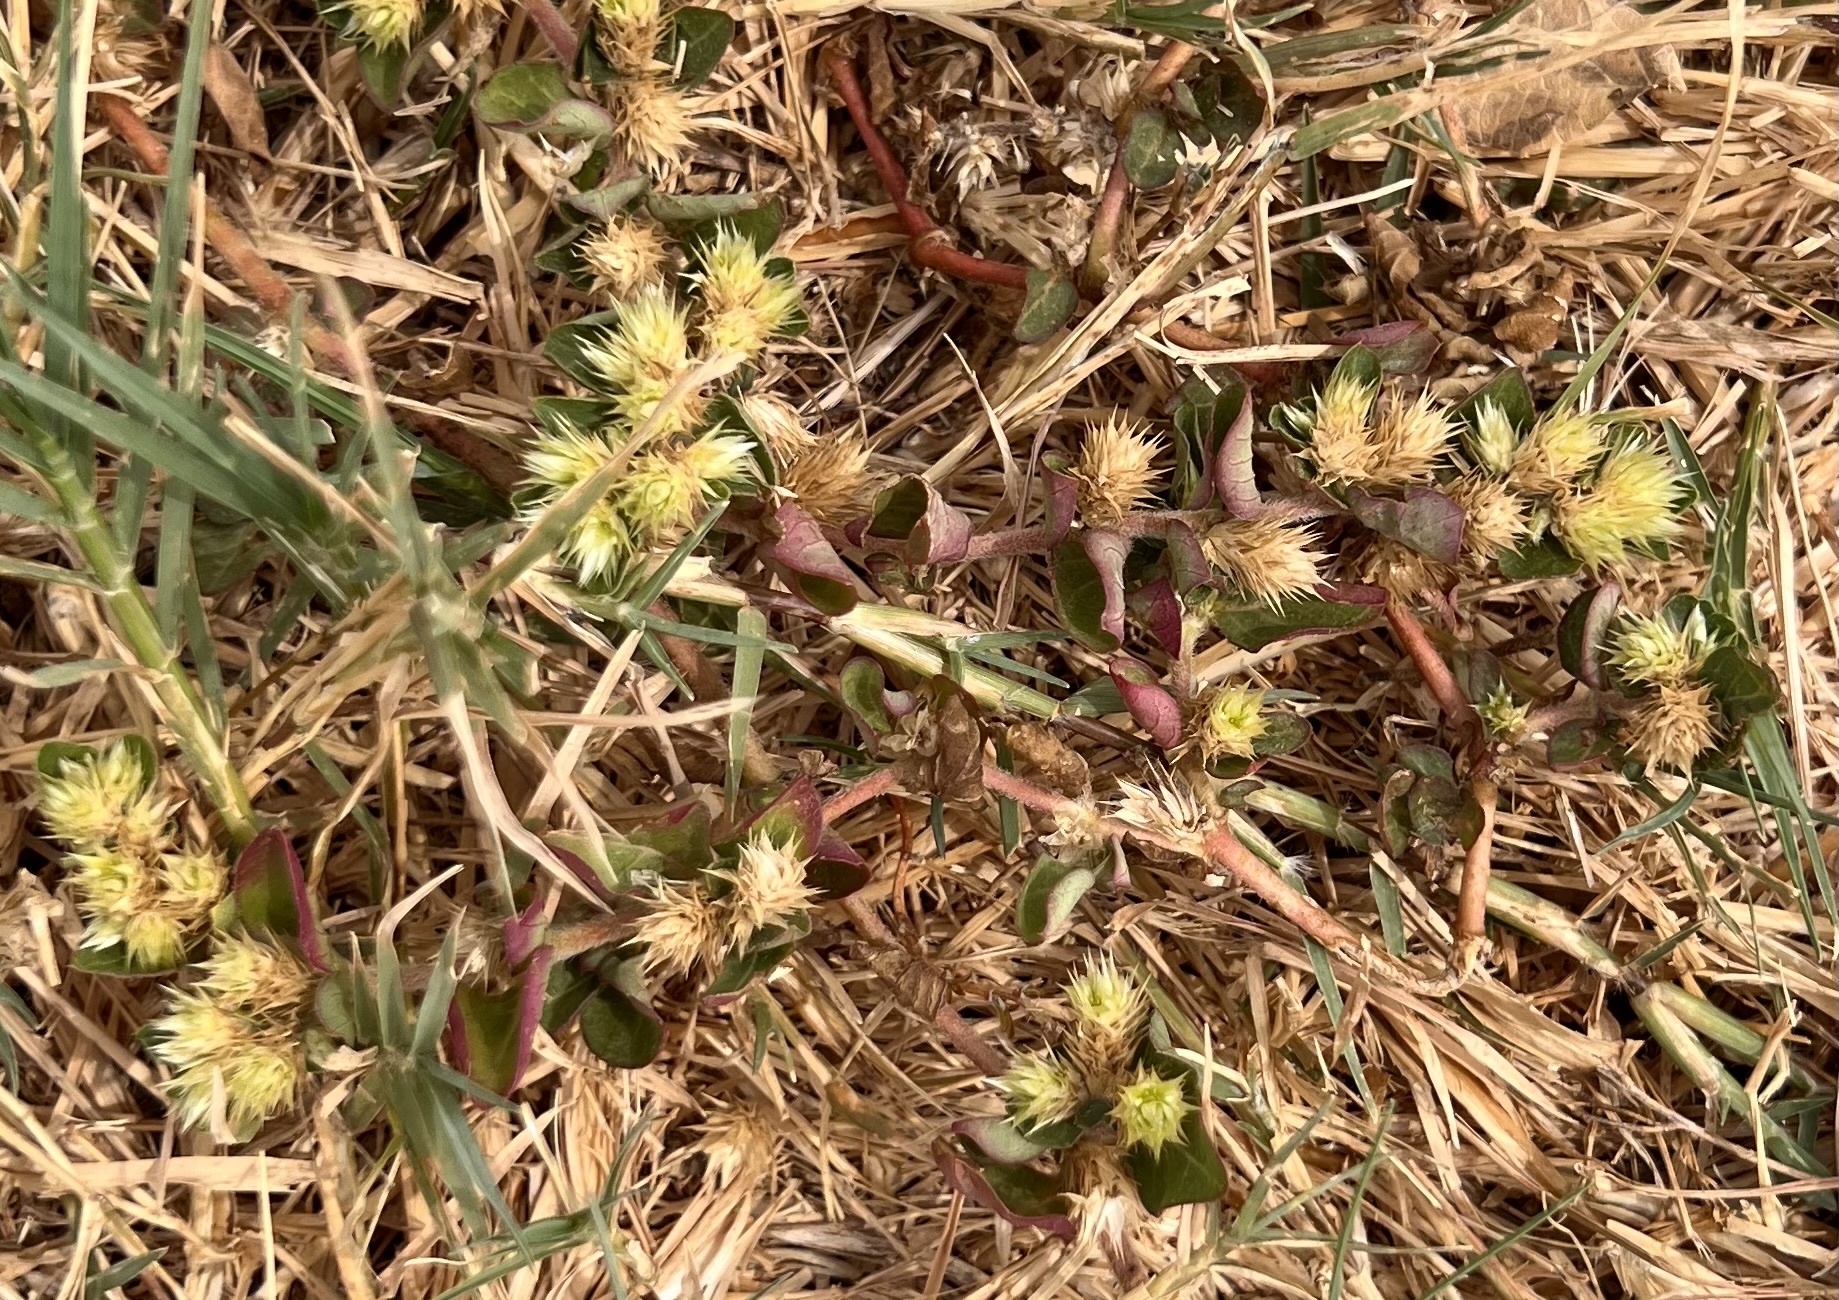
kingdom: Plantae
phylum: Tracheophyta
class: Magnoliopsida
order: Caryophyllales
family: Amaranthaceae
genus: Alternanthera
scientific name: Alternanthera pungens
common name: Khakiweed
